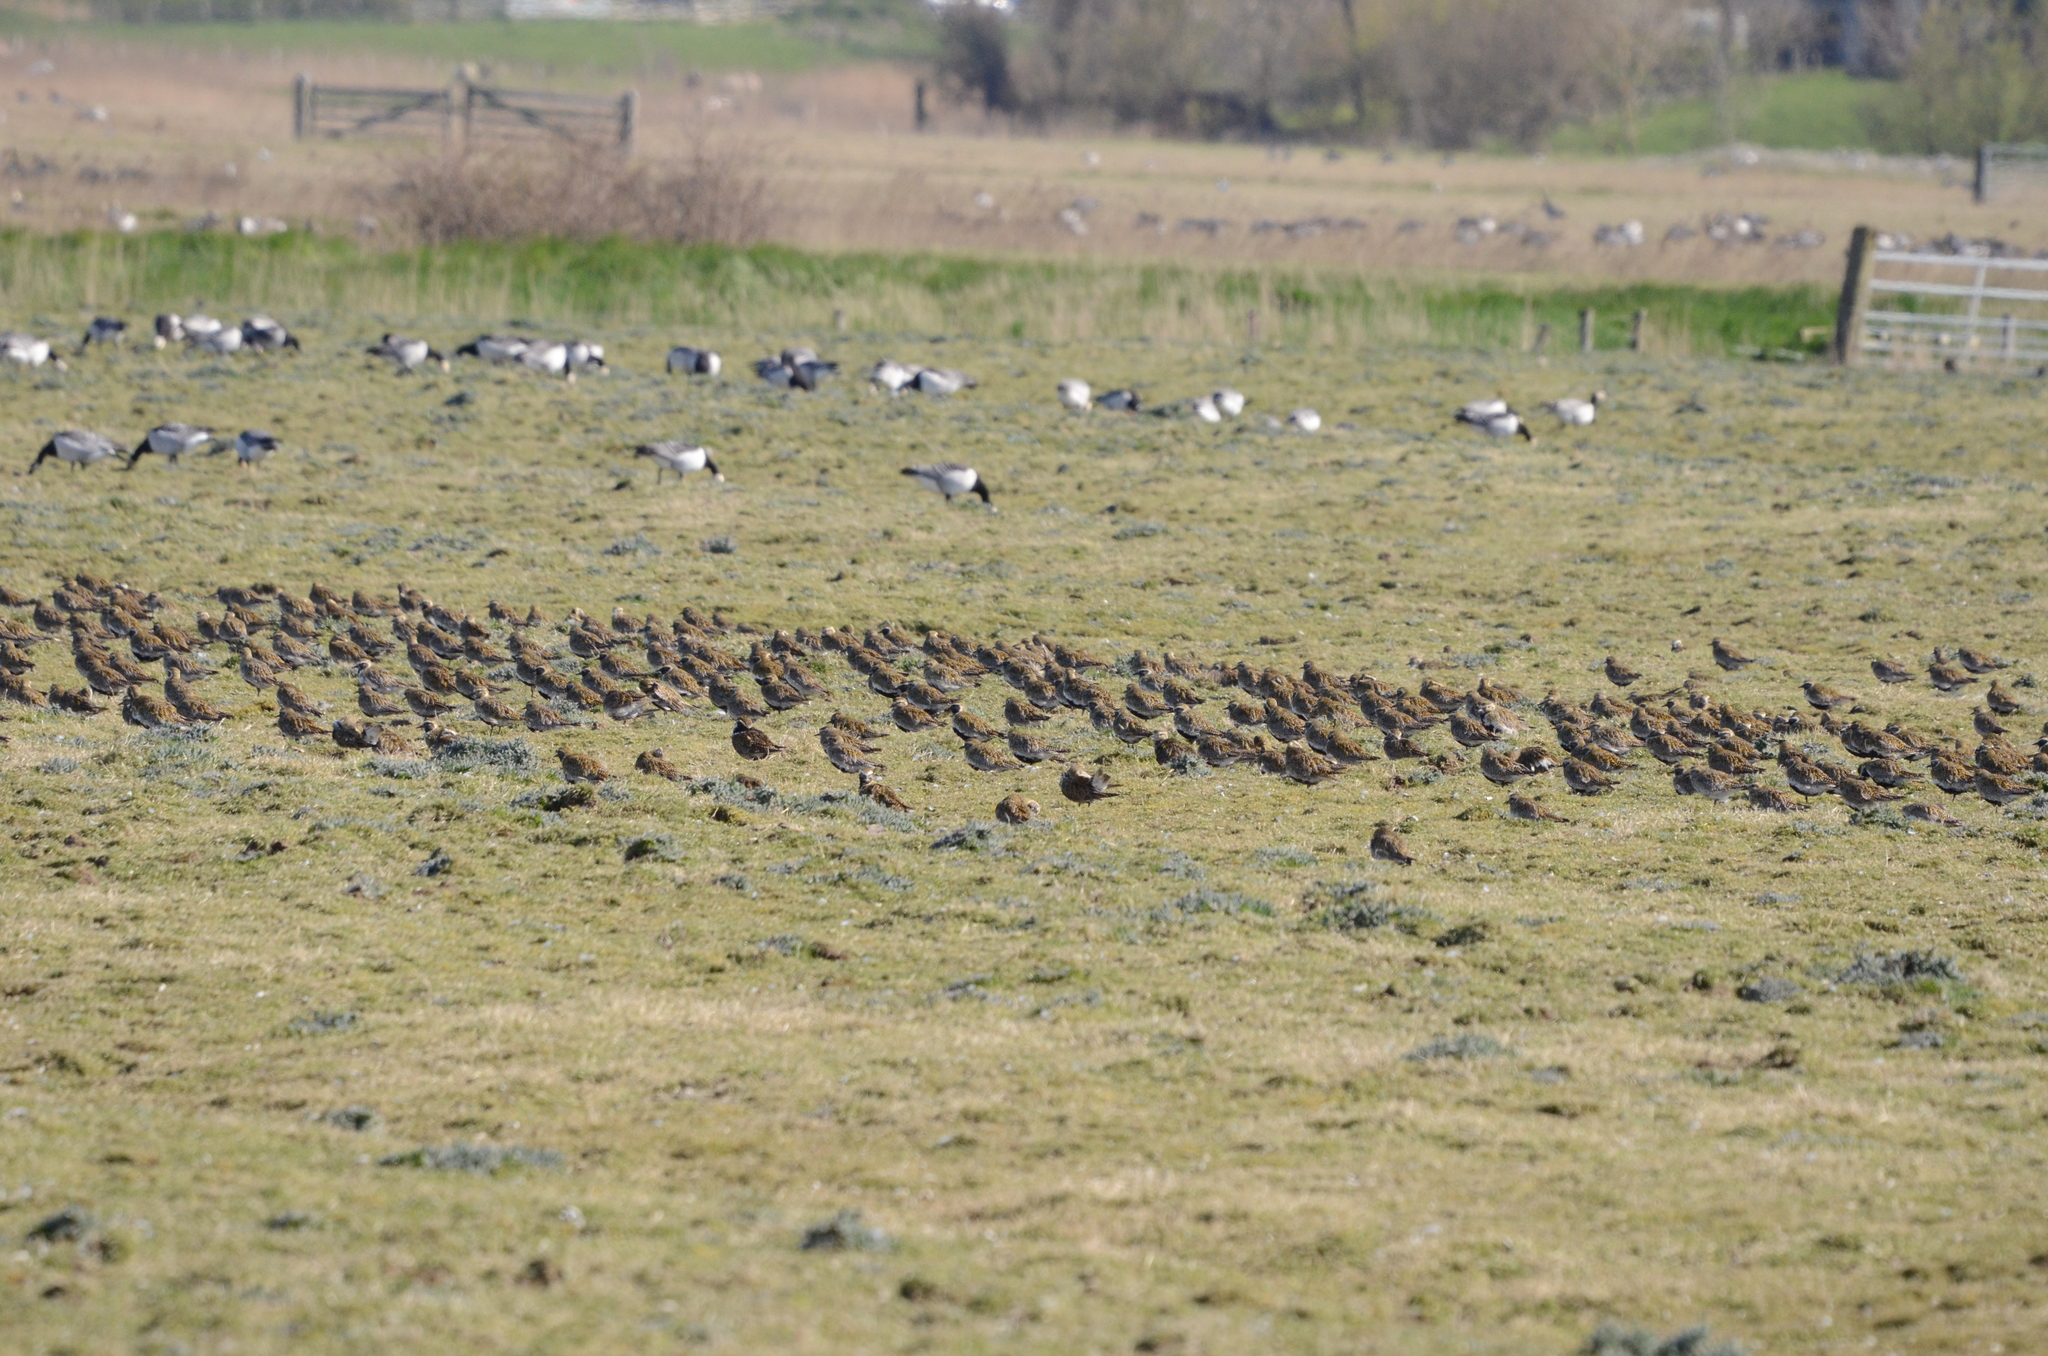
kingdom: Animalia
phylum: Chordata
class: Aves
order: Charadriiformes
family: Charadriidae
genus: Pluvialis
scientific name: Pluvialis apricaria
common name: European golden plover
